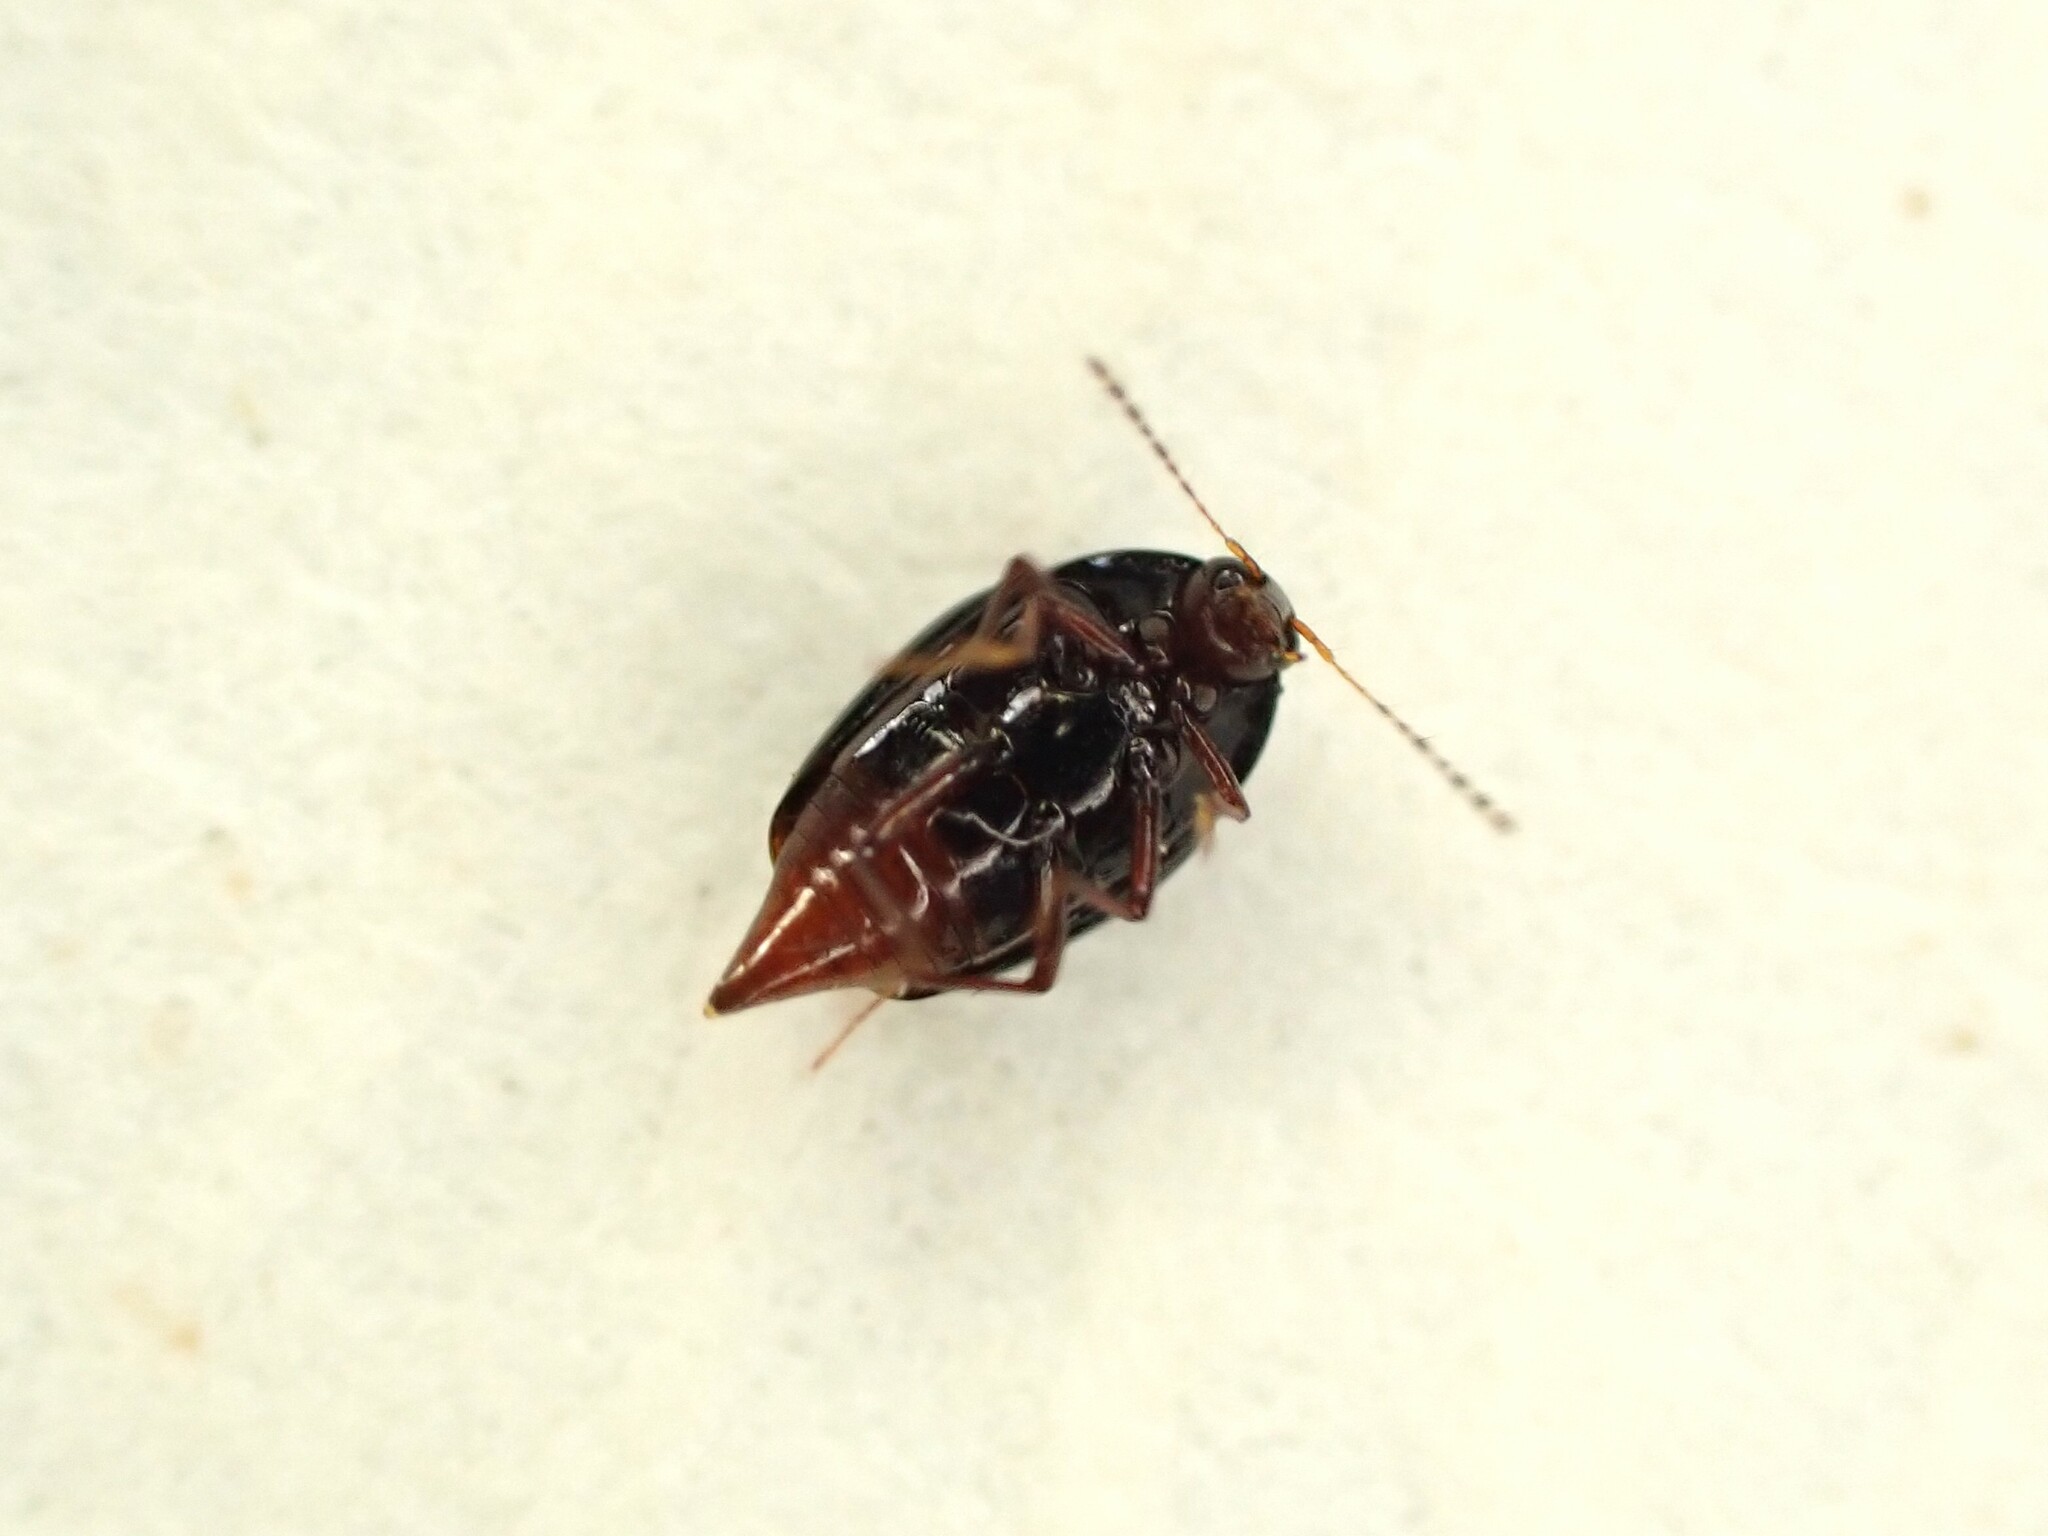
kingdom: Animalia
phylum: Arthropoda
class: Insecta
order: Coleoptera
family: Staphylinidae
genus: Brachynopus
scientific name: Brachynopus scutellaris
